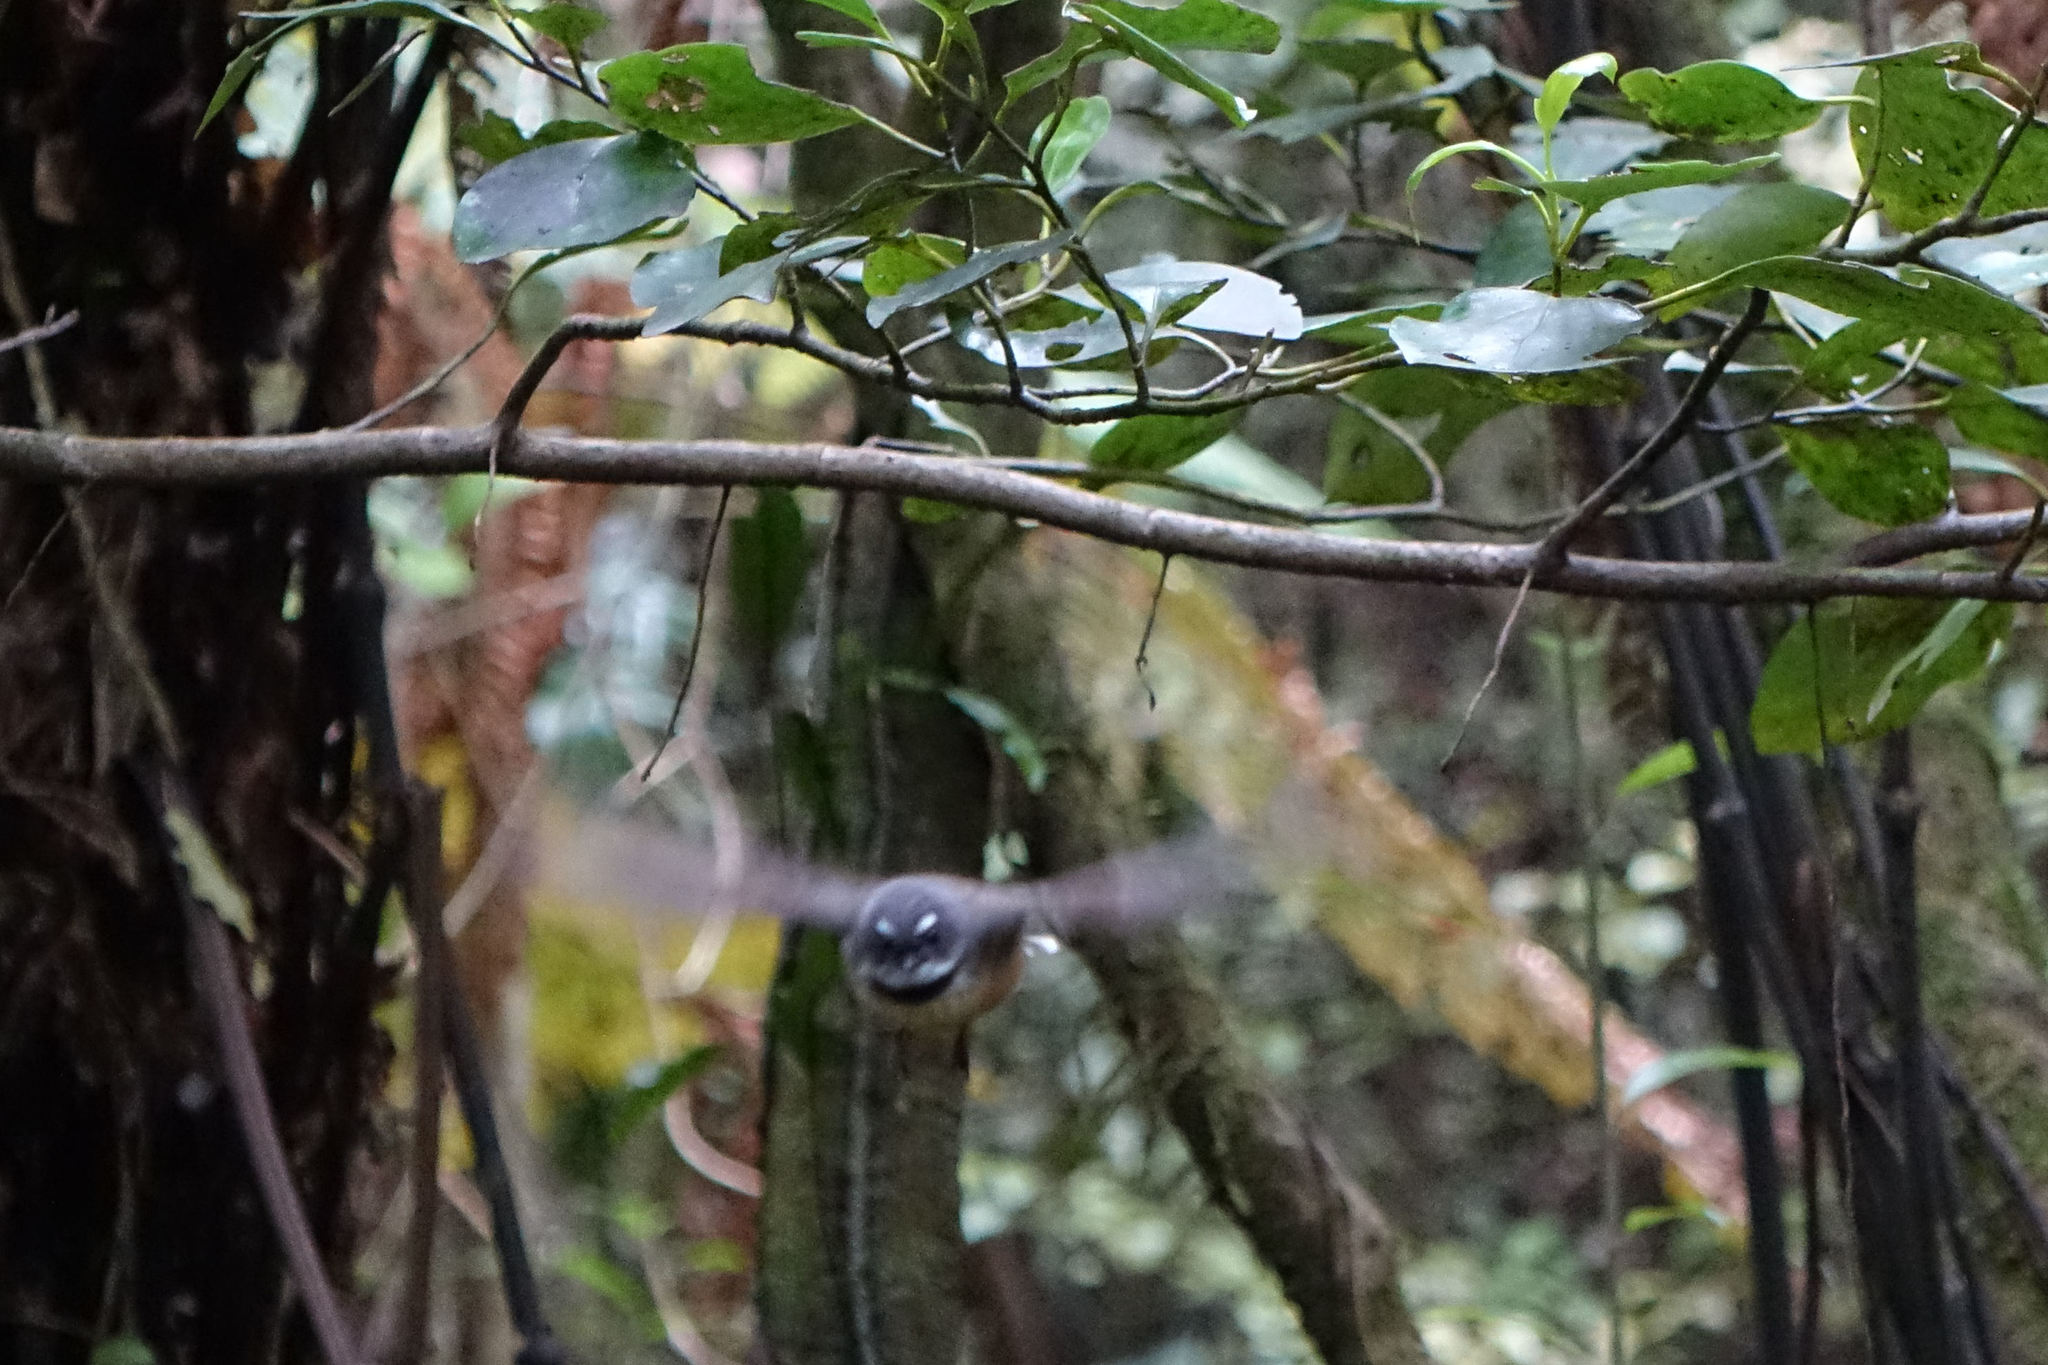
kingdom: Animalia
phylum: Chordata
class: Aves
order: Passeriformes
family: Rhipiduridae
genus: Rhipidura
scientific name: Rhipidura fuliginosa
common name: New zealand fantail
